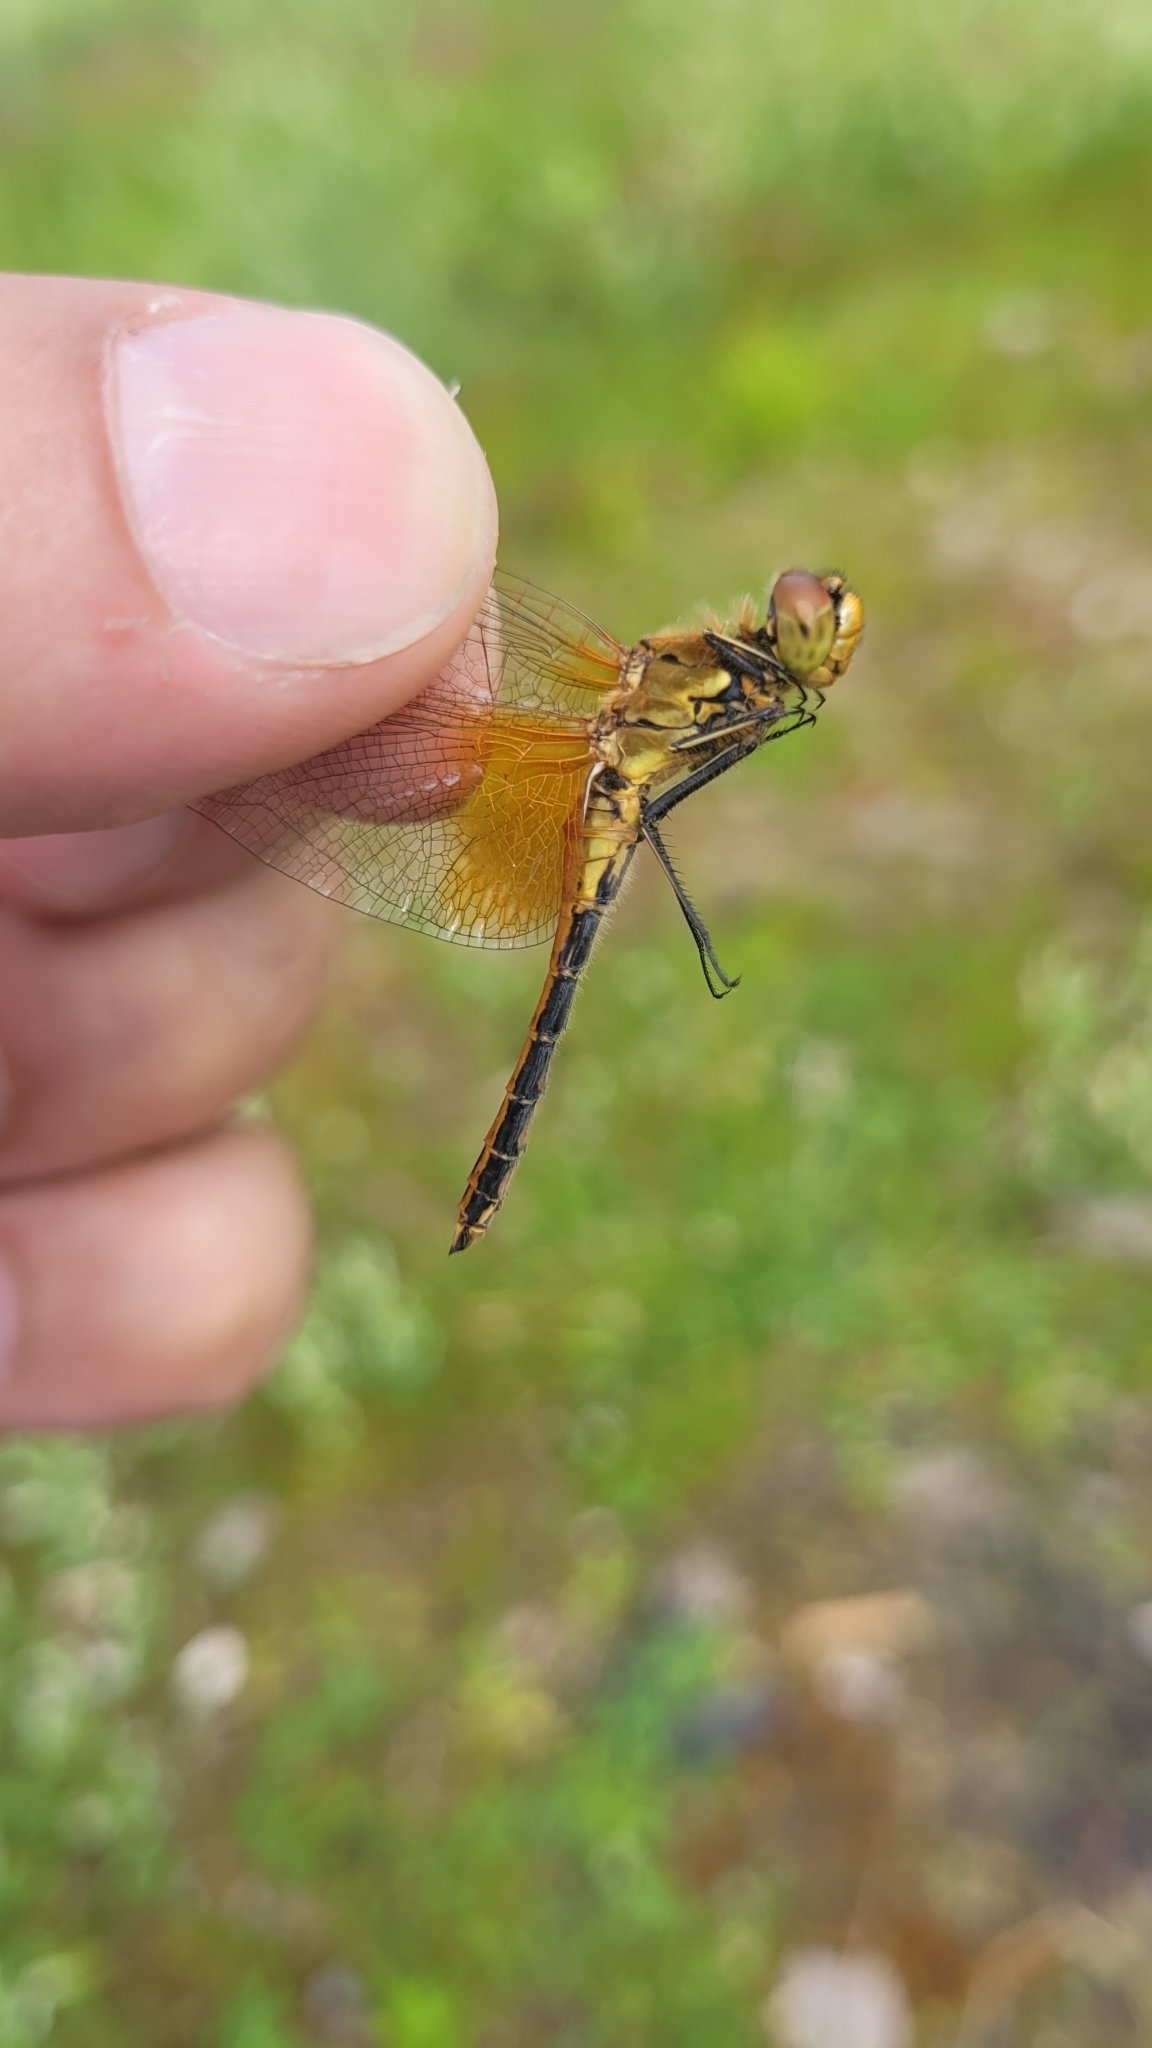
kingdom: Animalia
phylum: Arthropoda
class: Insecta
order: Odonata
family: Libellulidae
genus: Sympetrum
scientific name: Sympetrum flaveolum
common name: Yellow-winged darter
